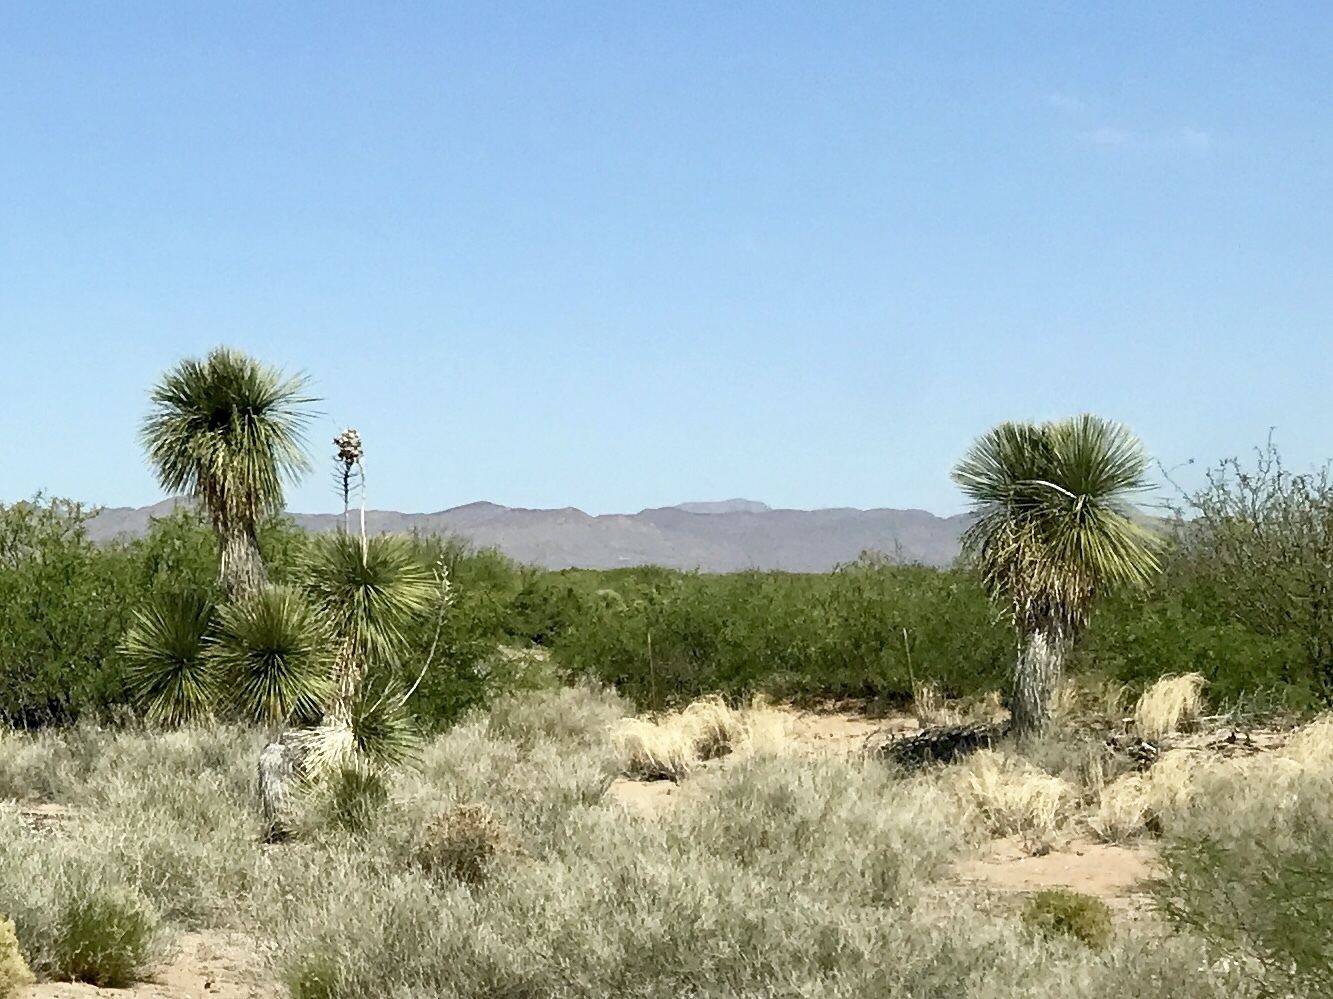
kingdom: Plantae
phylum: Tracheophyta
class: Liliopsida
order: Asparagales
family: Asparagaceae
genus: Yucca
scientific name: Yucca elata
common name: Palmella
